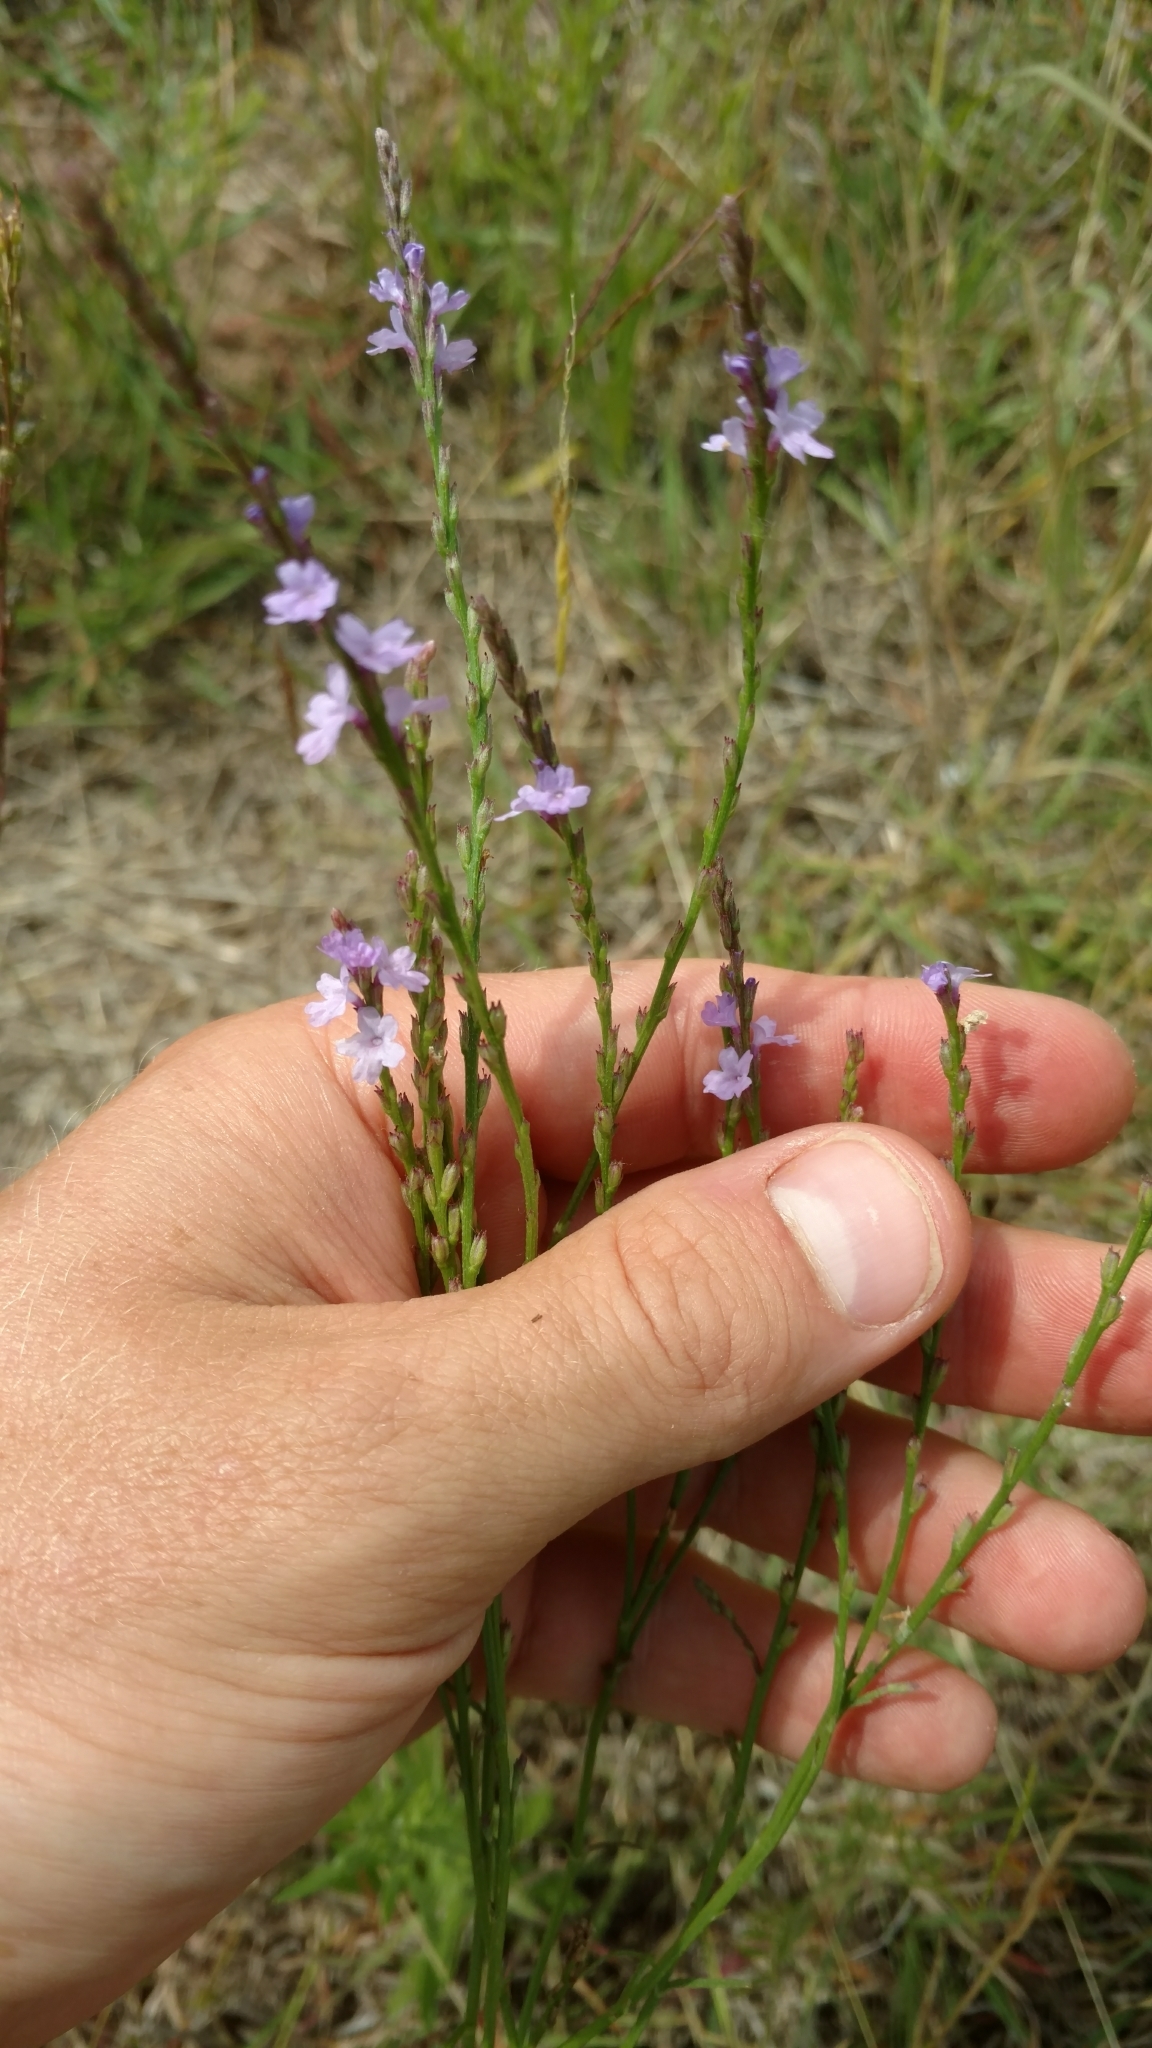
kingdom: Plantae
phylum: Tracheophyta
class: Magnoliopsida
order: Lamiales
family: Verbenaceae
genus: Verbena
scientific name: Verbena halei
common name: Texas vervain
